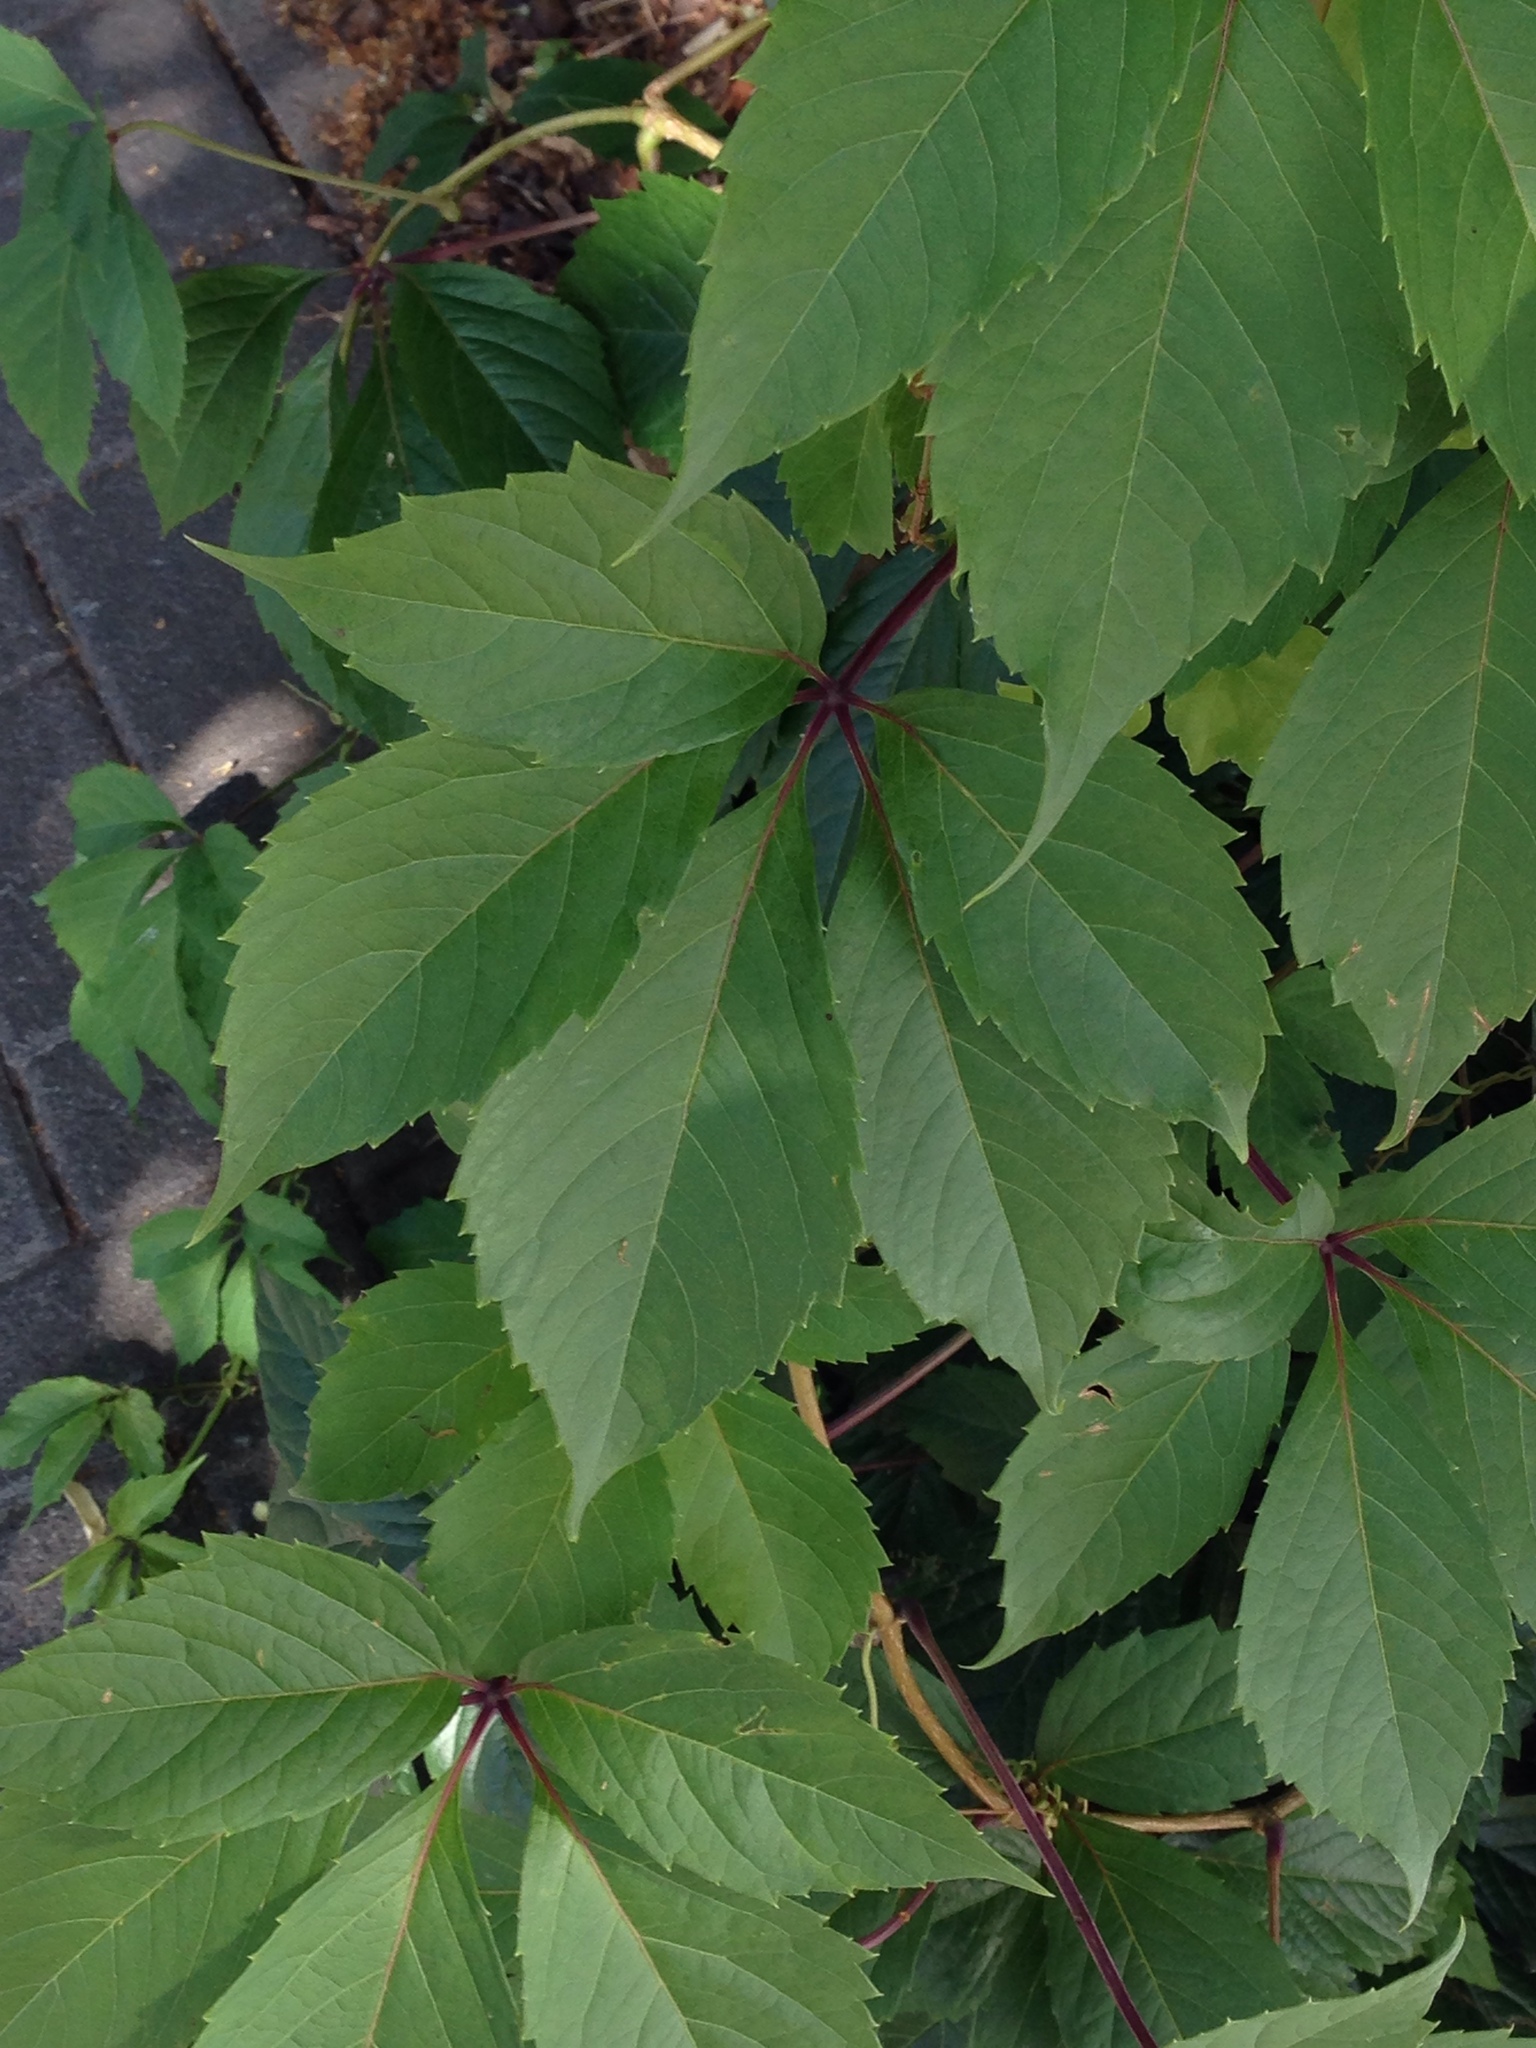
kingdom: Plantae
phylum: Tracheophyta
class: Magnoliopsida
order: Vitales
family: Vitaceae
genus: Parthenocissus
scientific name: Parthenocissus quinquefolia
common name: Virginia-creeper
